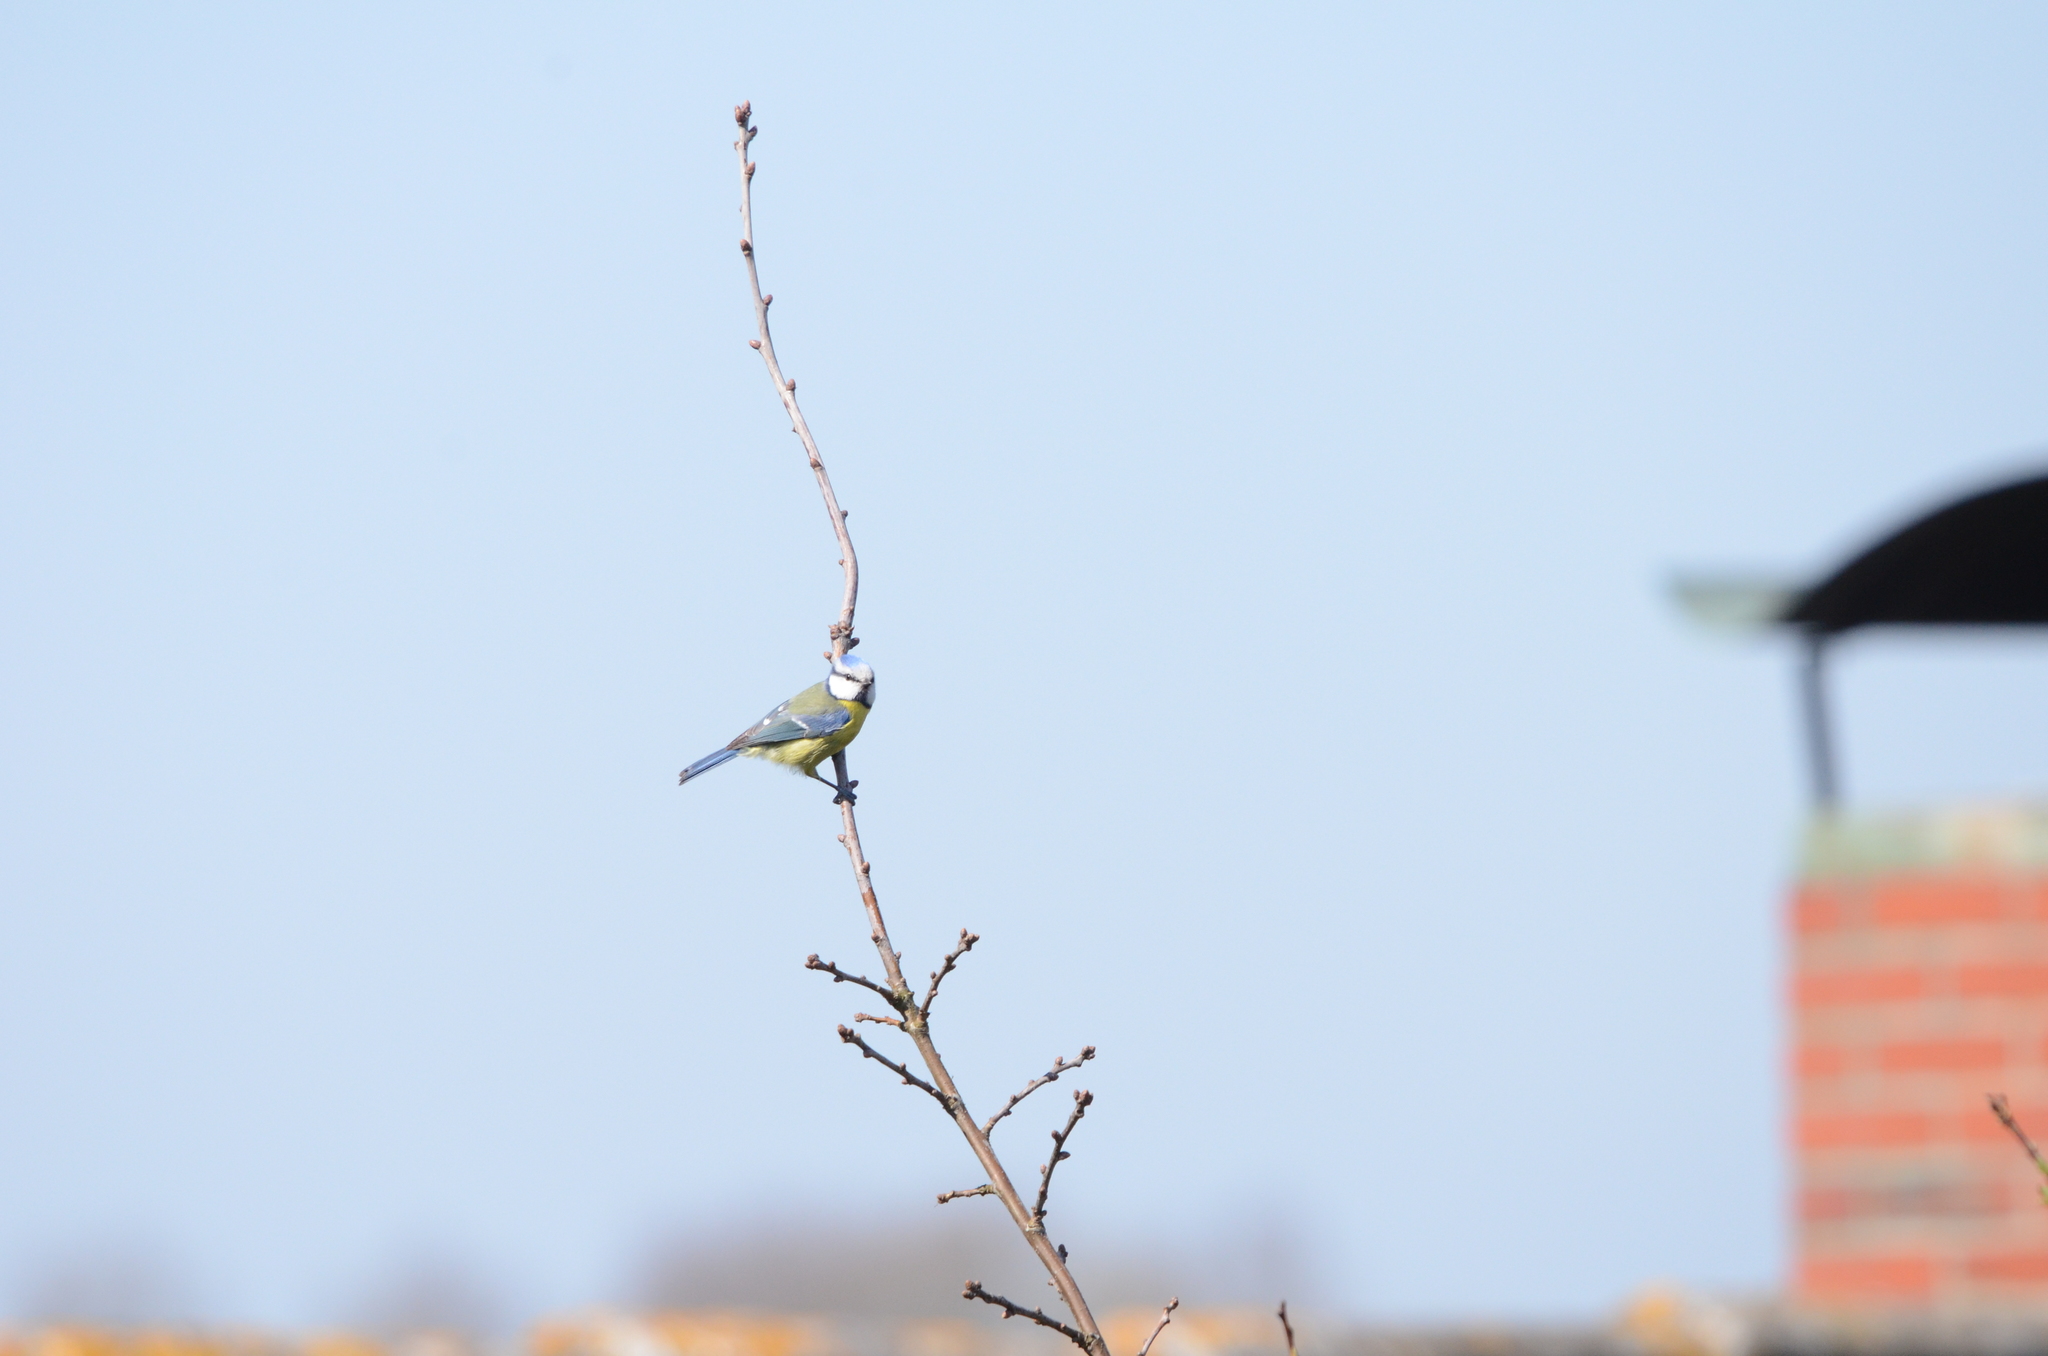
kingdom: Animalia
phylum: Chordata
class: Aves
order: Passeriformes
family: Paridae
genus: Cyanistes
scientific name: Cyanistes caeruleus
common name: Eurasian blue tit
